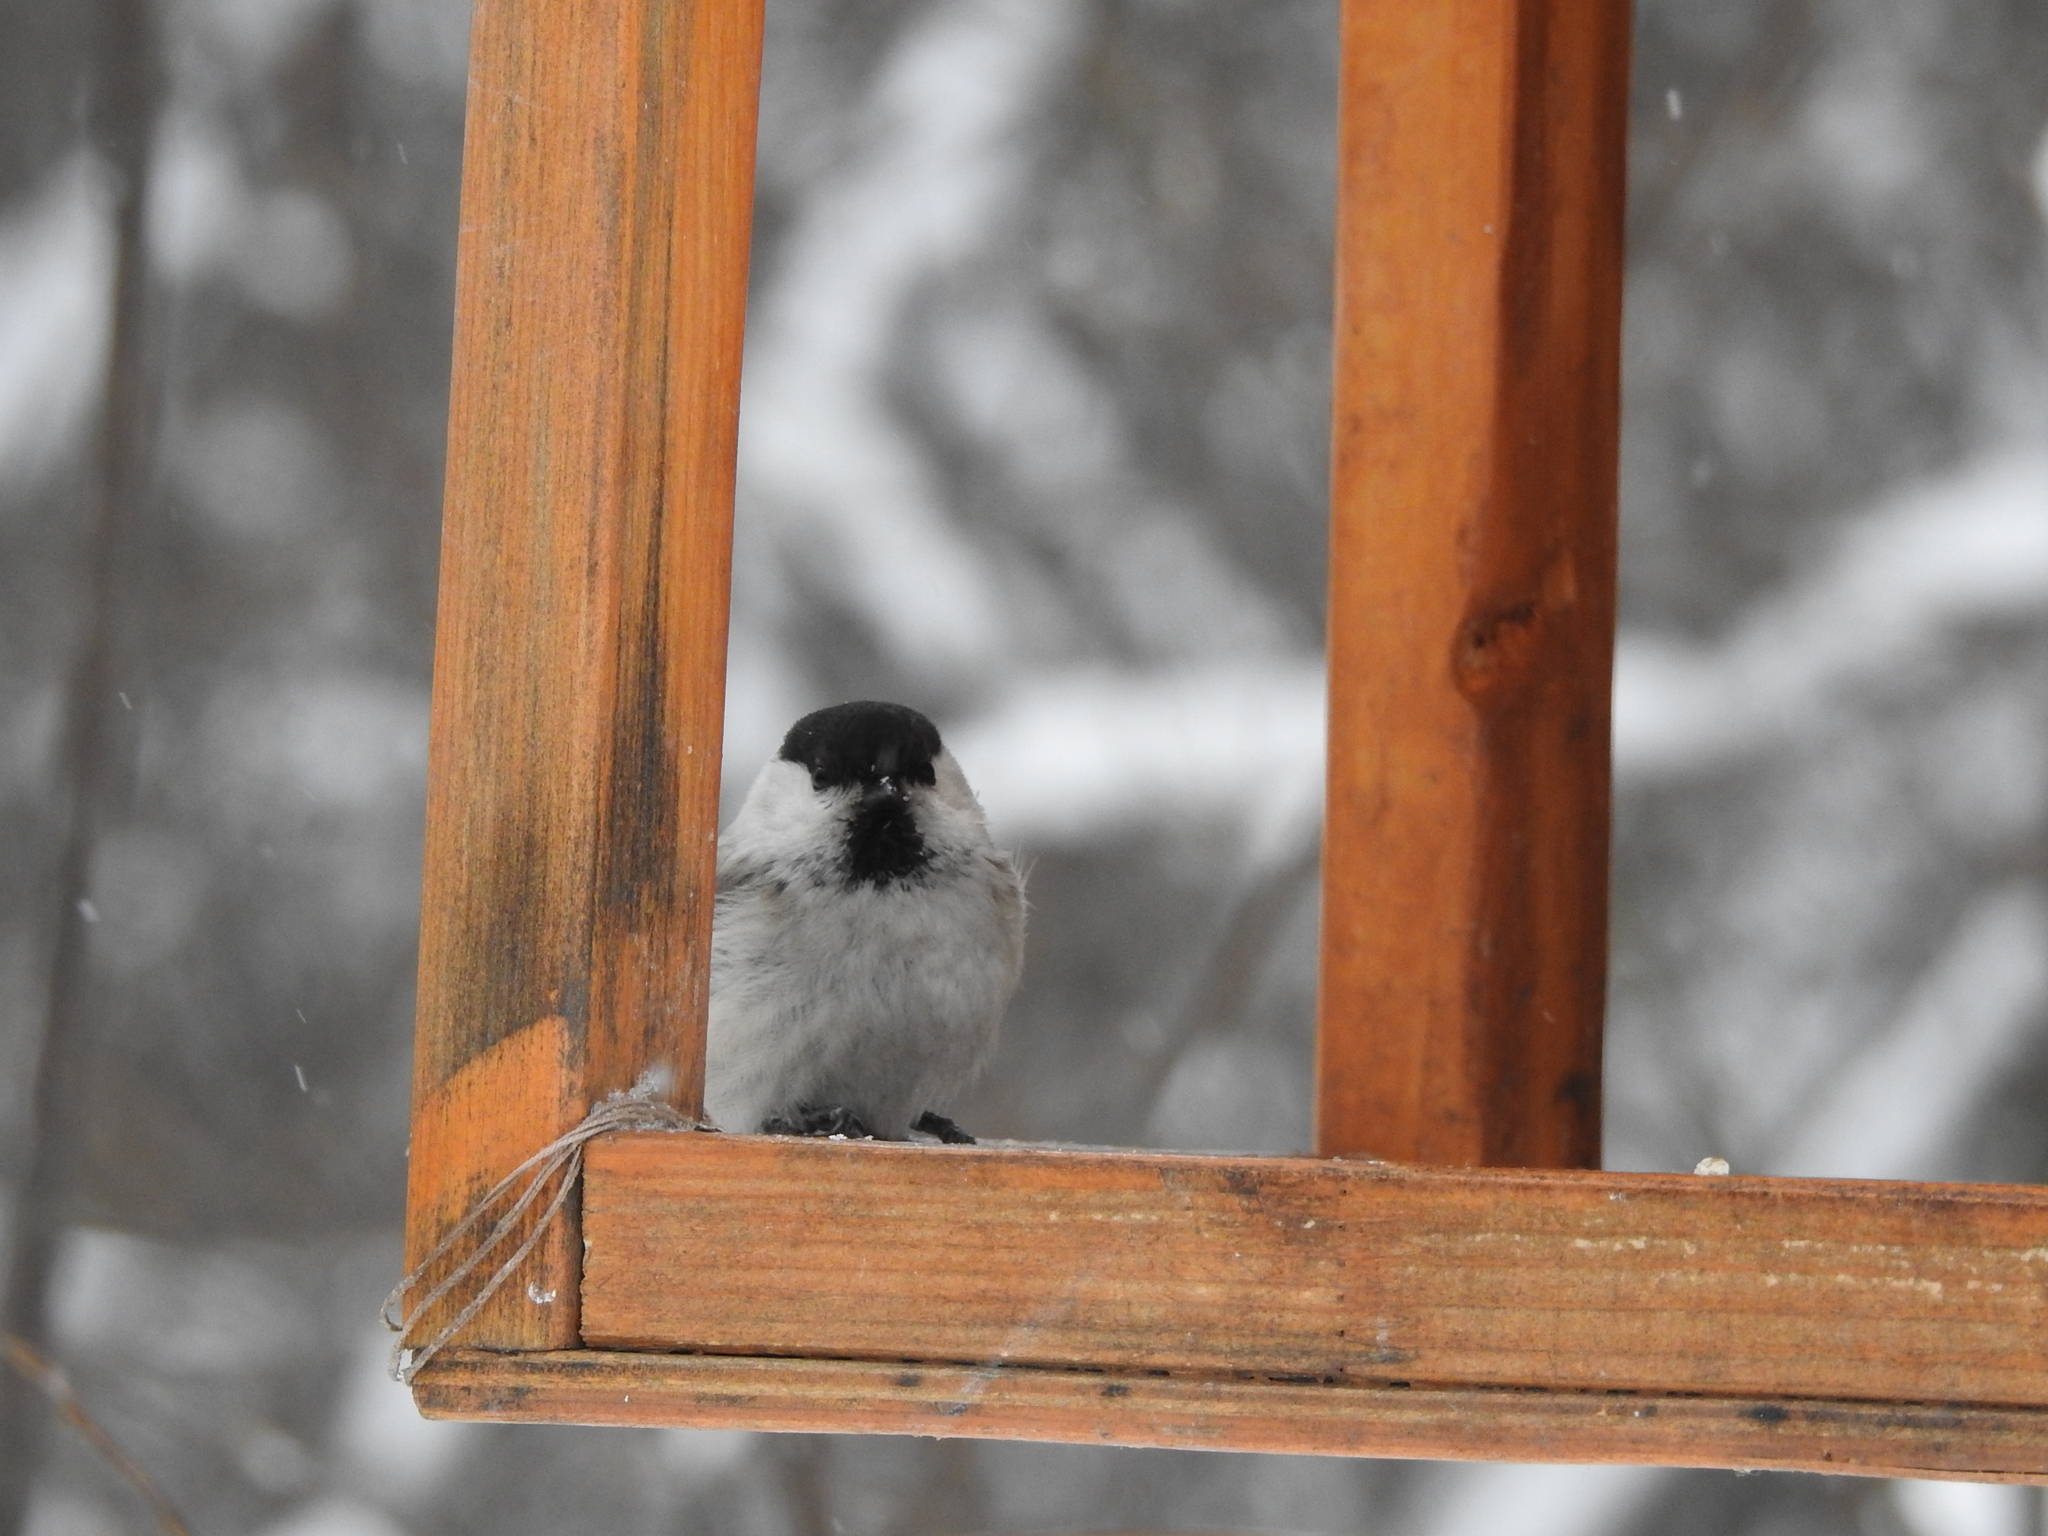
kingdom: Animalia
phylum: Chordata
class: Aves
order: Passeriformes
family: Paridae
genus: Poecile
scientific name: Poecile montanus
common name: Willow tit
